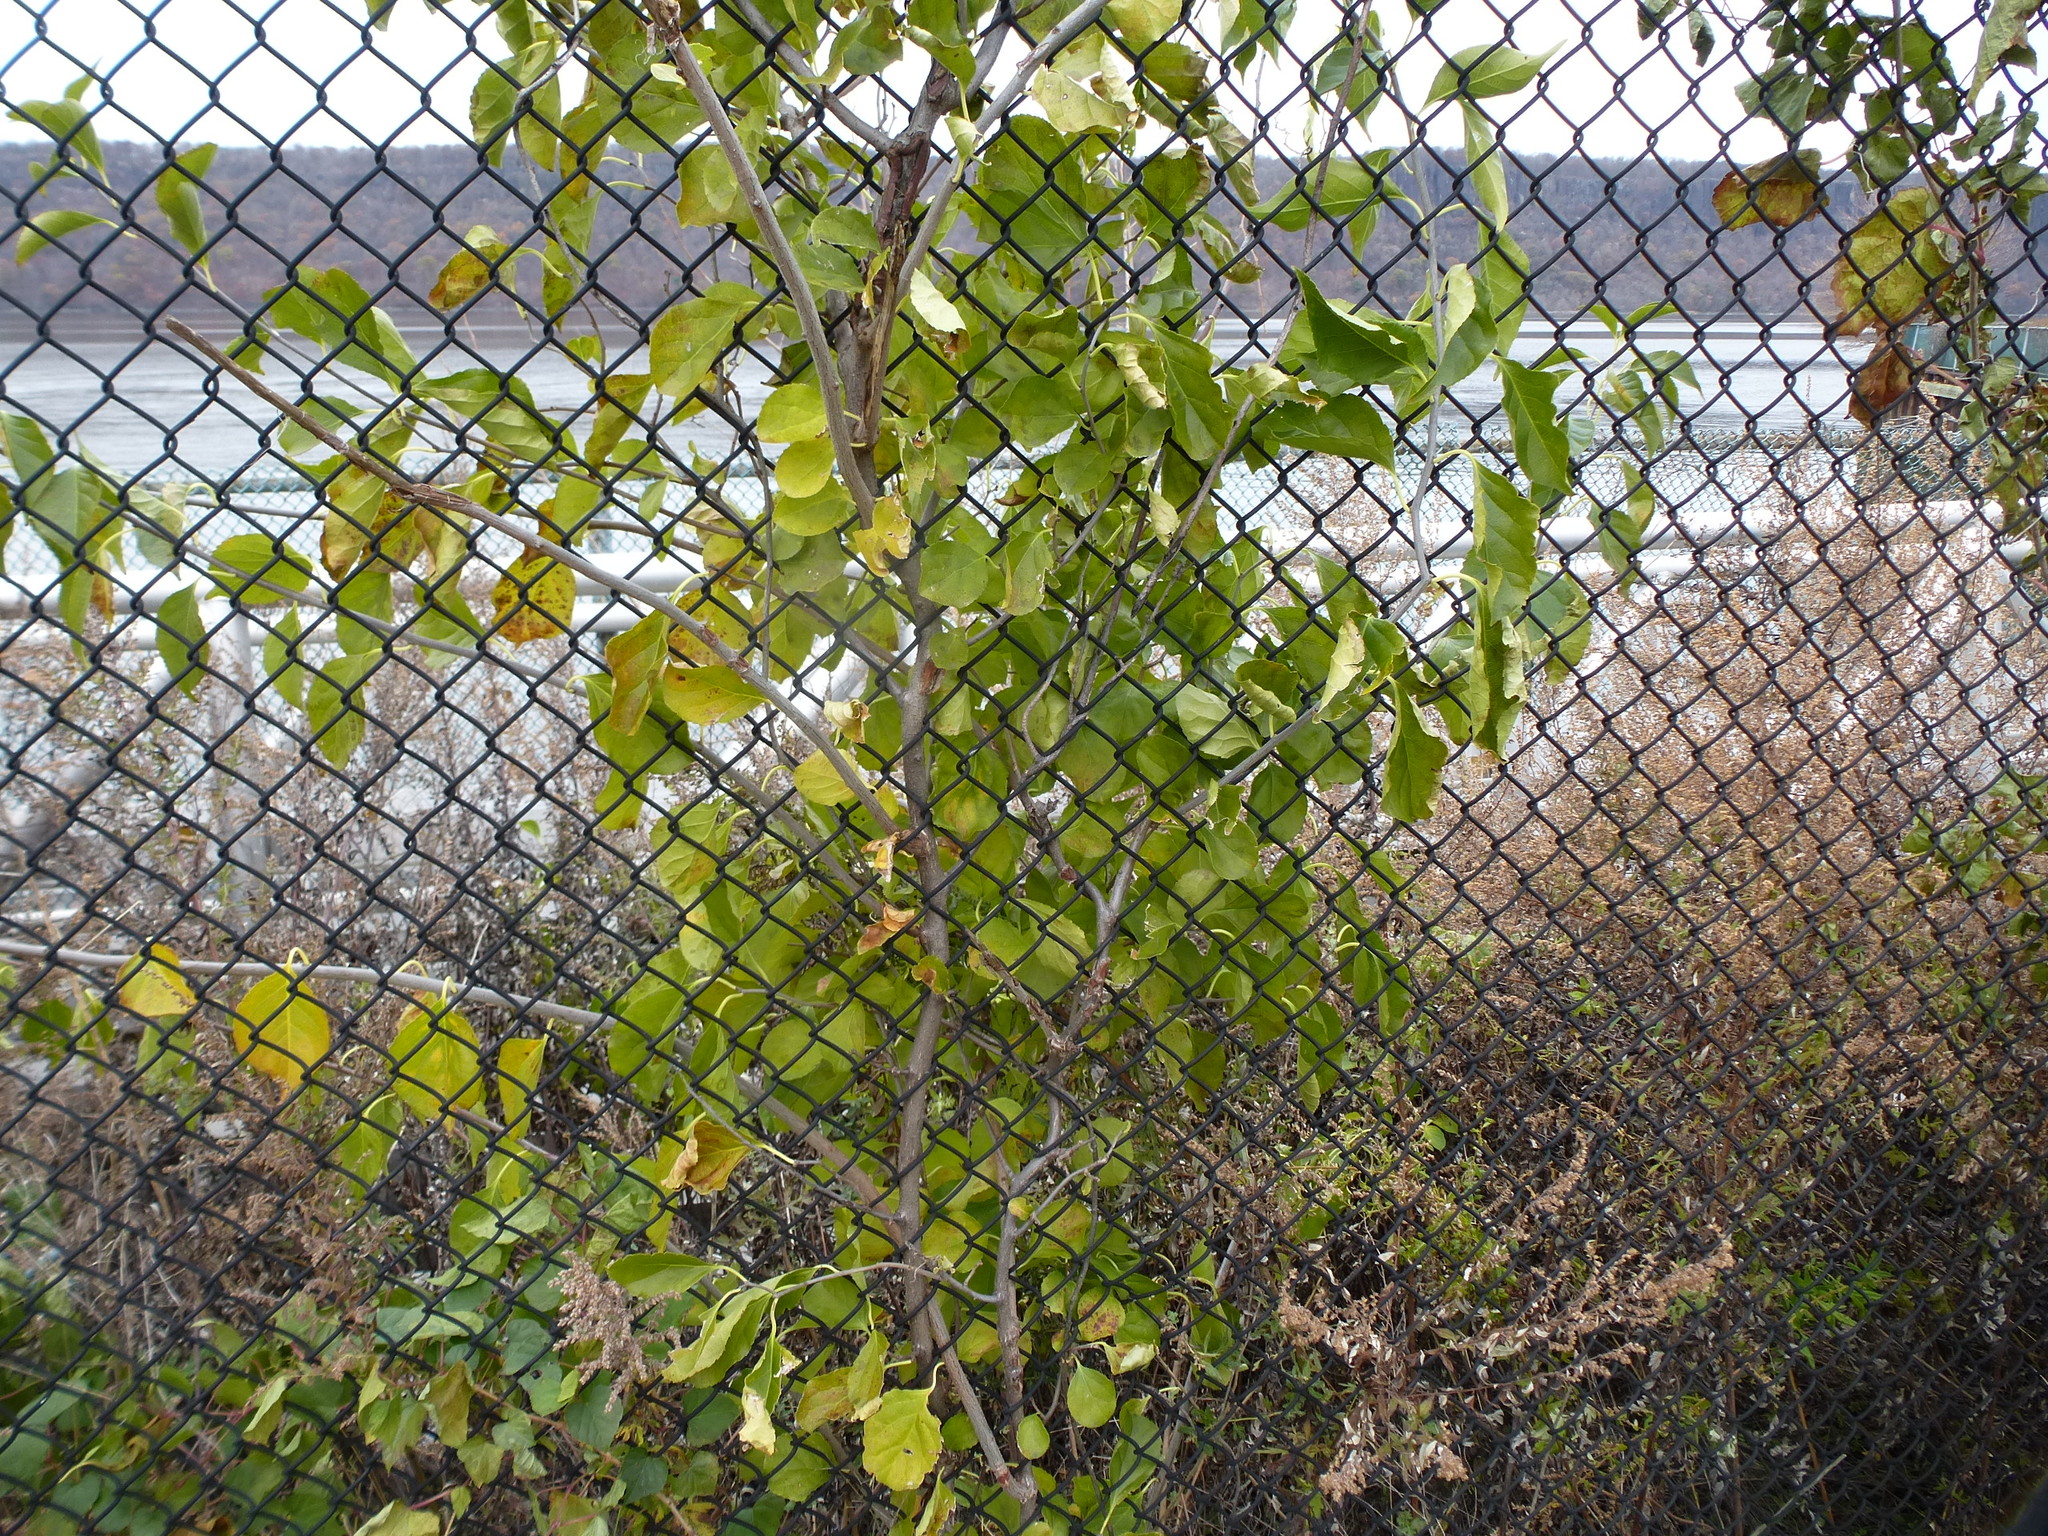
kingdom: Plantae
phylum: Tracheophyta
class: Magnoliopsida
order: Celastrales
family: Celastraceae
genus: Celastrus
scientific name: Celastrus orbiculatus
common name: Oriental bittersweet
